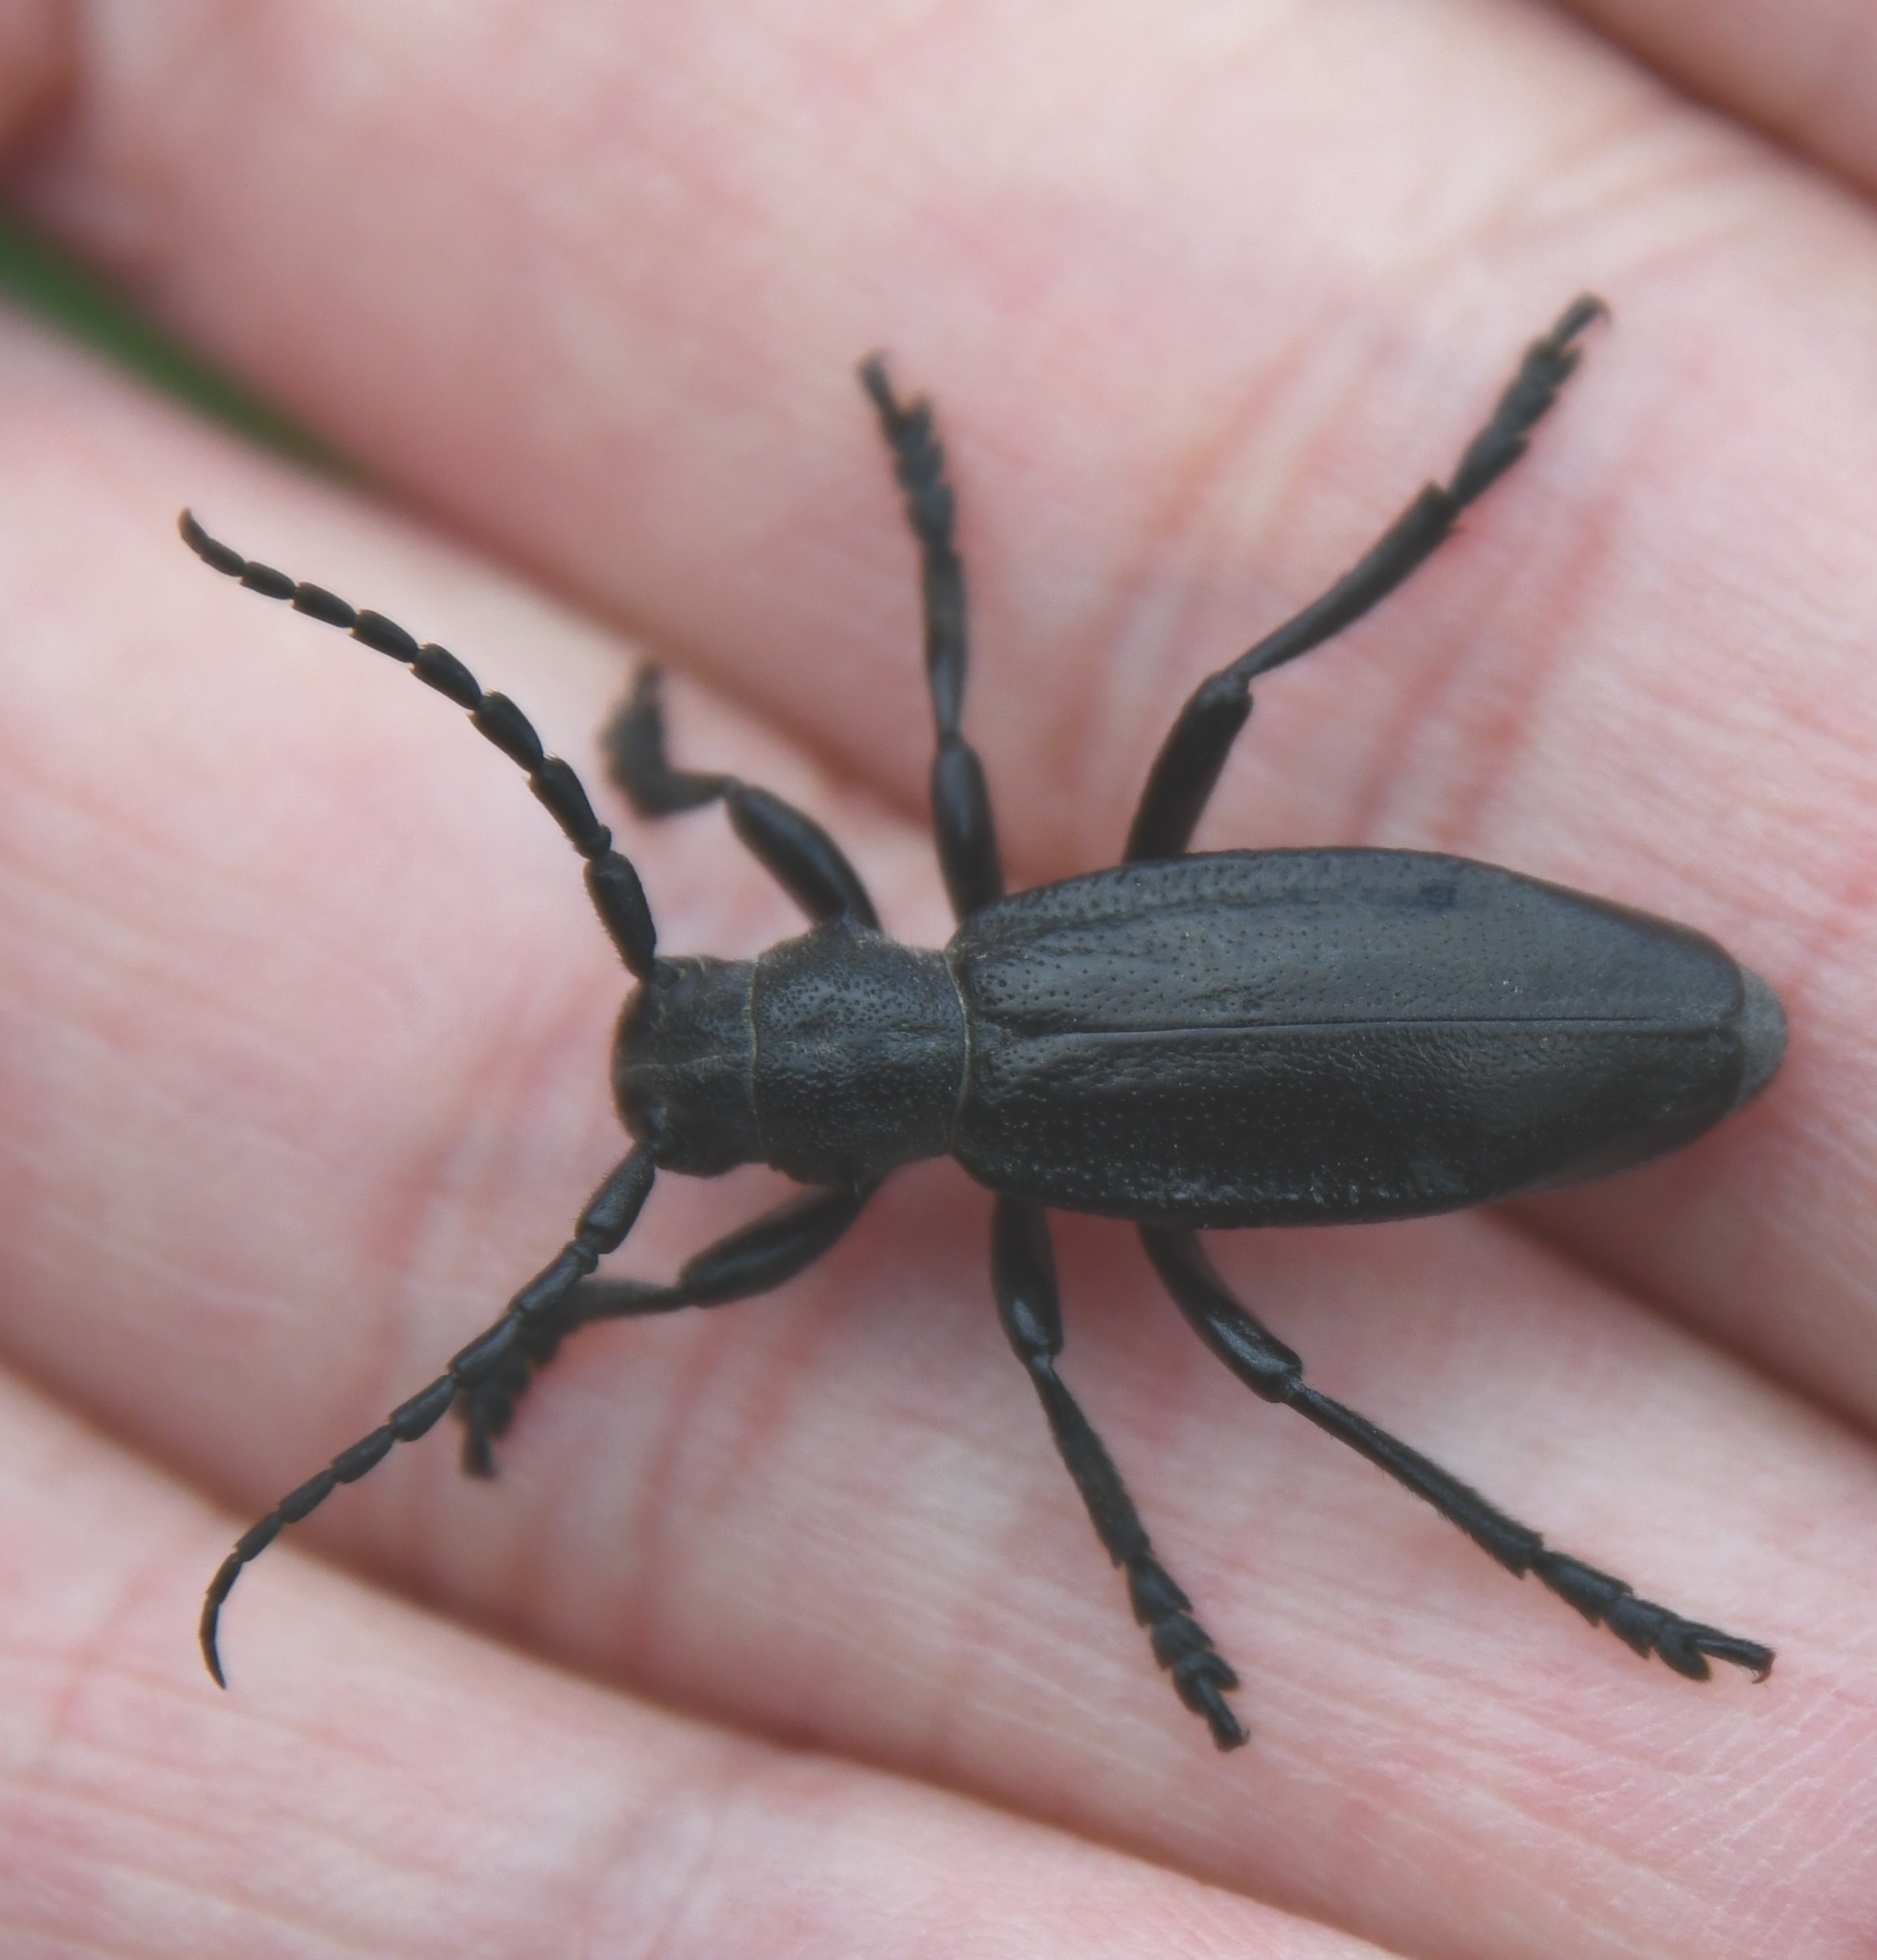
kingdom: Animalia
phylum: Arthropoda
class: Insecta
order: Coleoptera
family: Cerambycidae
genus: Dorcadion
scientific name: Dorcadion carinatum
